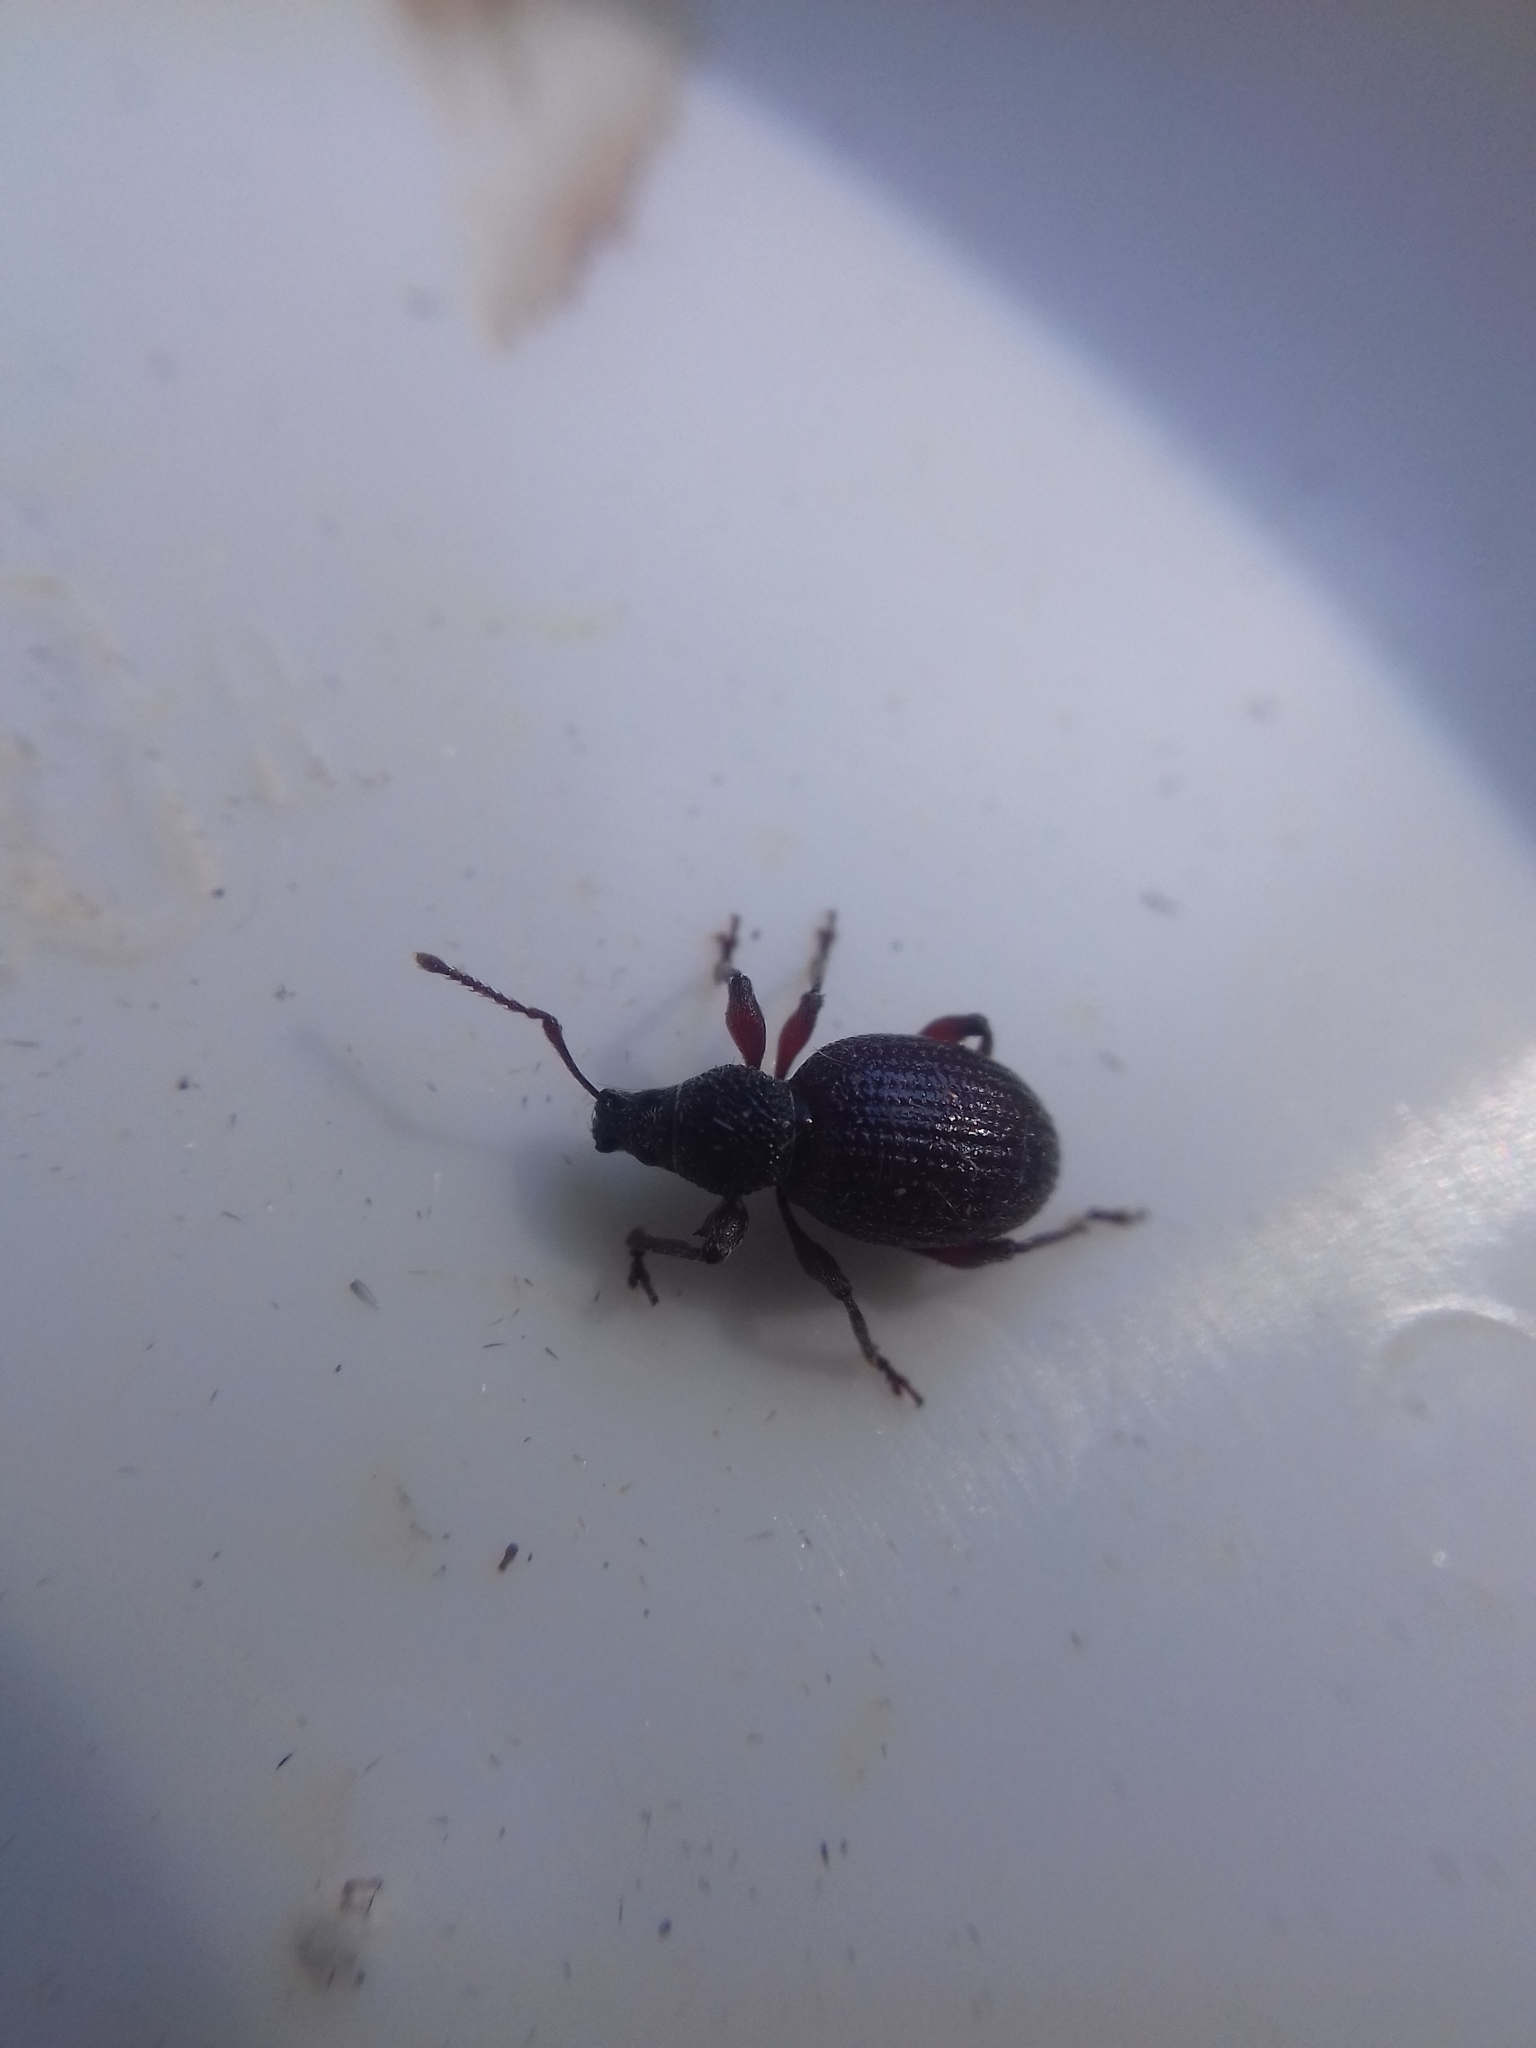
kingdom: Animalia
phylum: Arthropoda
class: Insecta
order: Coleoptera
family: Curculionidae
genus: Otiorhynchus
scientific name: Otiorhynchus ovatus
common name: Strawberry root weevil
